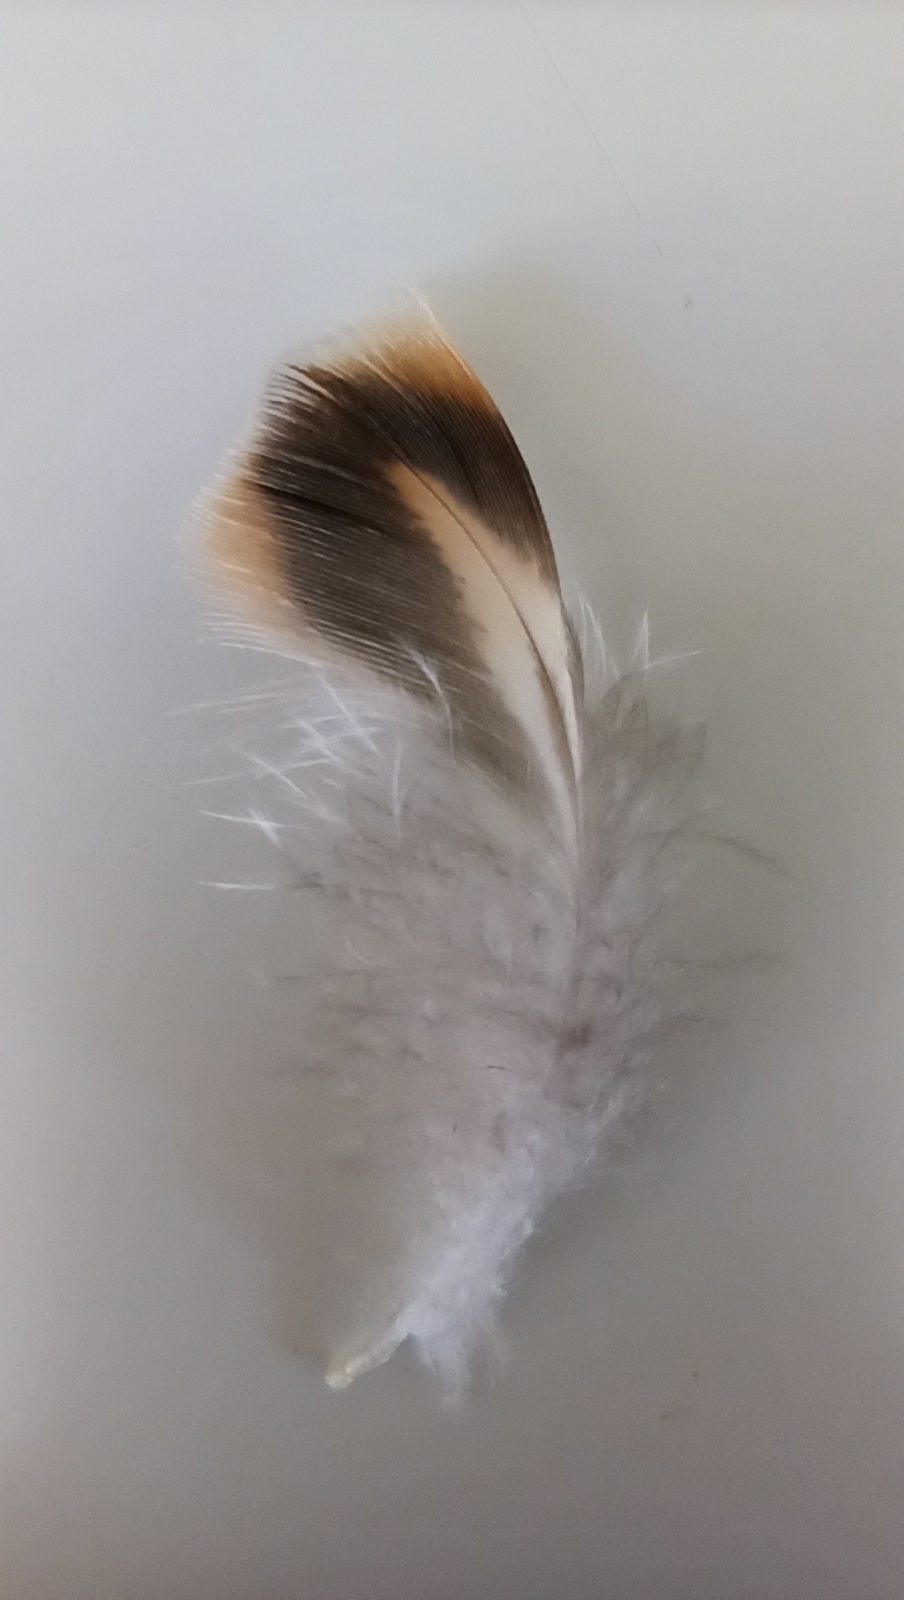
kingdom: Animalia
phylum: Chordata
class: Aves
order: Anseriformes
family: Anatidae
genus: Anas
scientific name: Anas platyrhynchos
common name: Mallard
